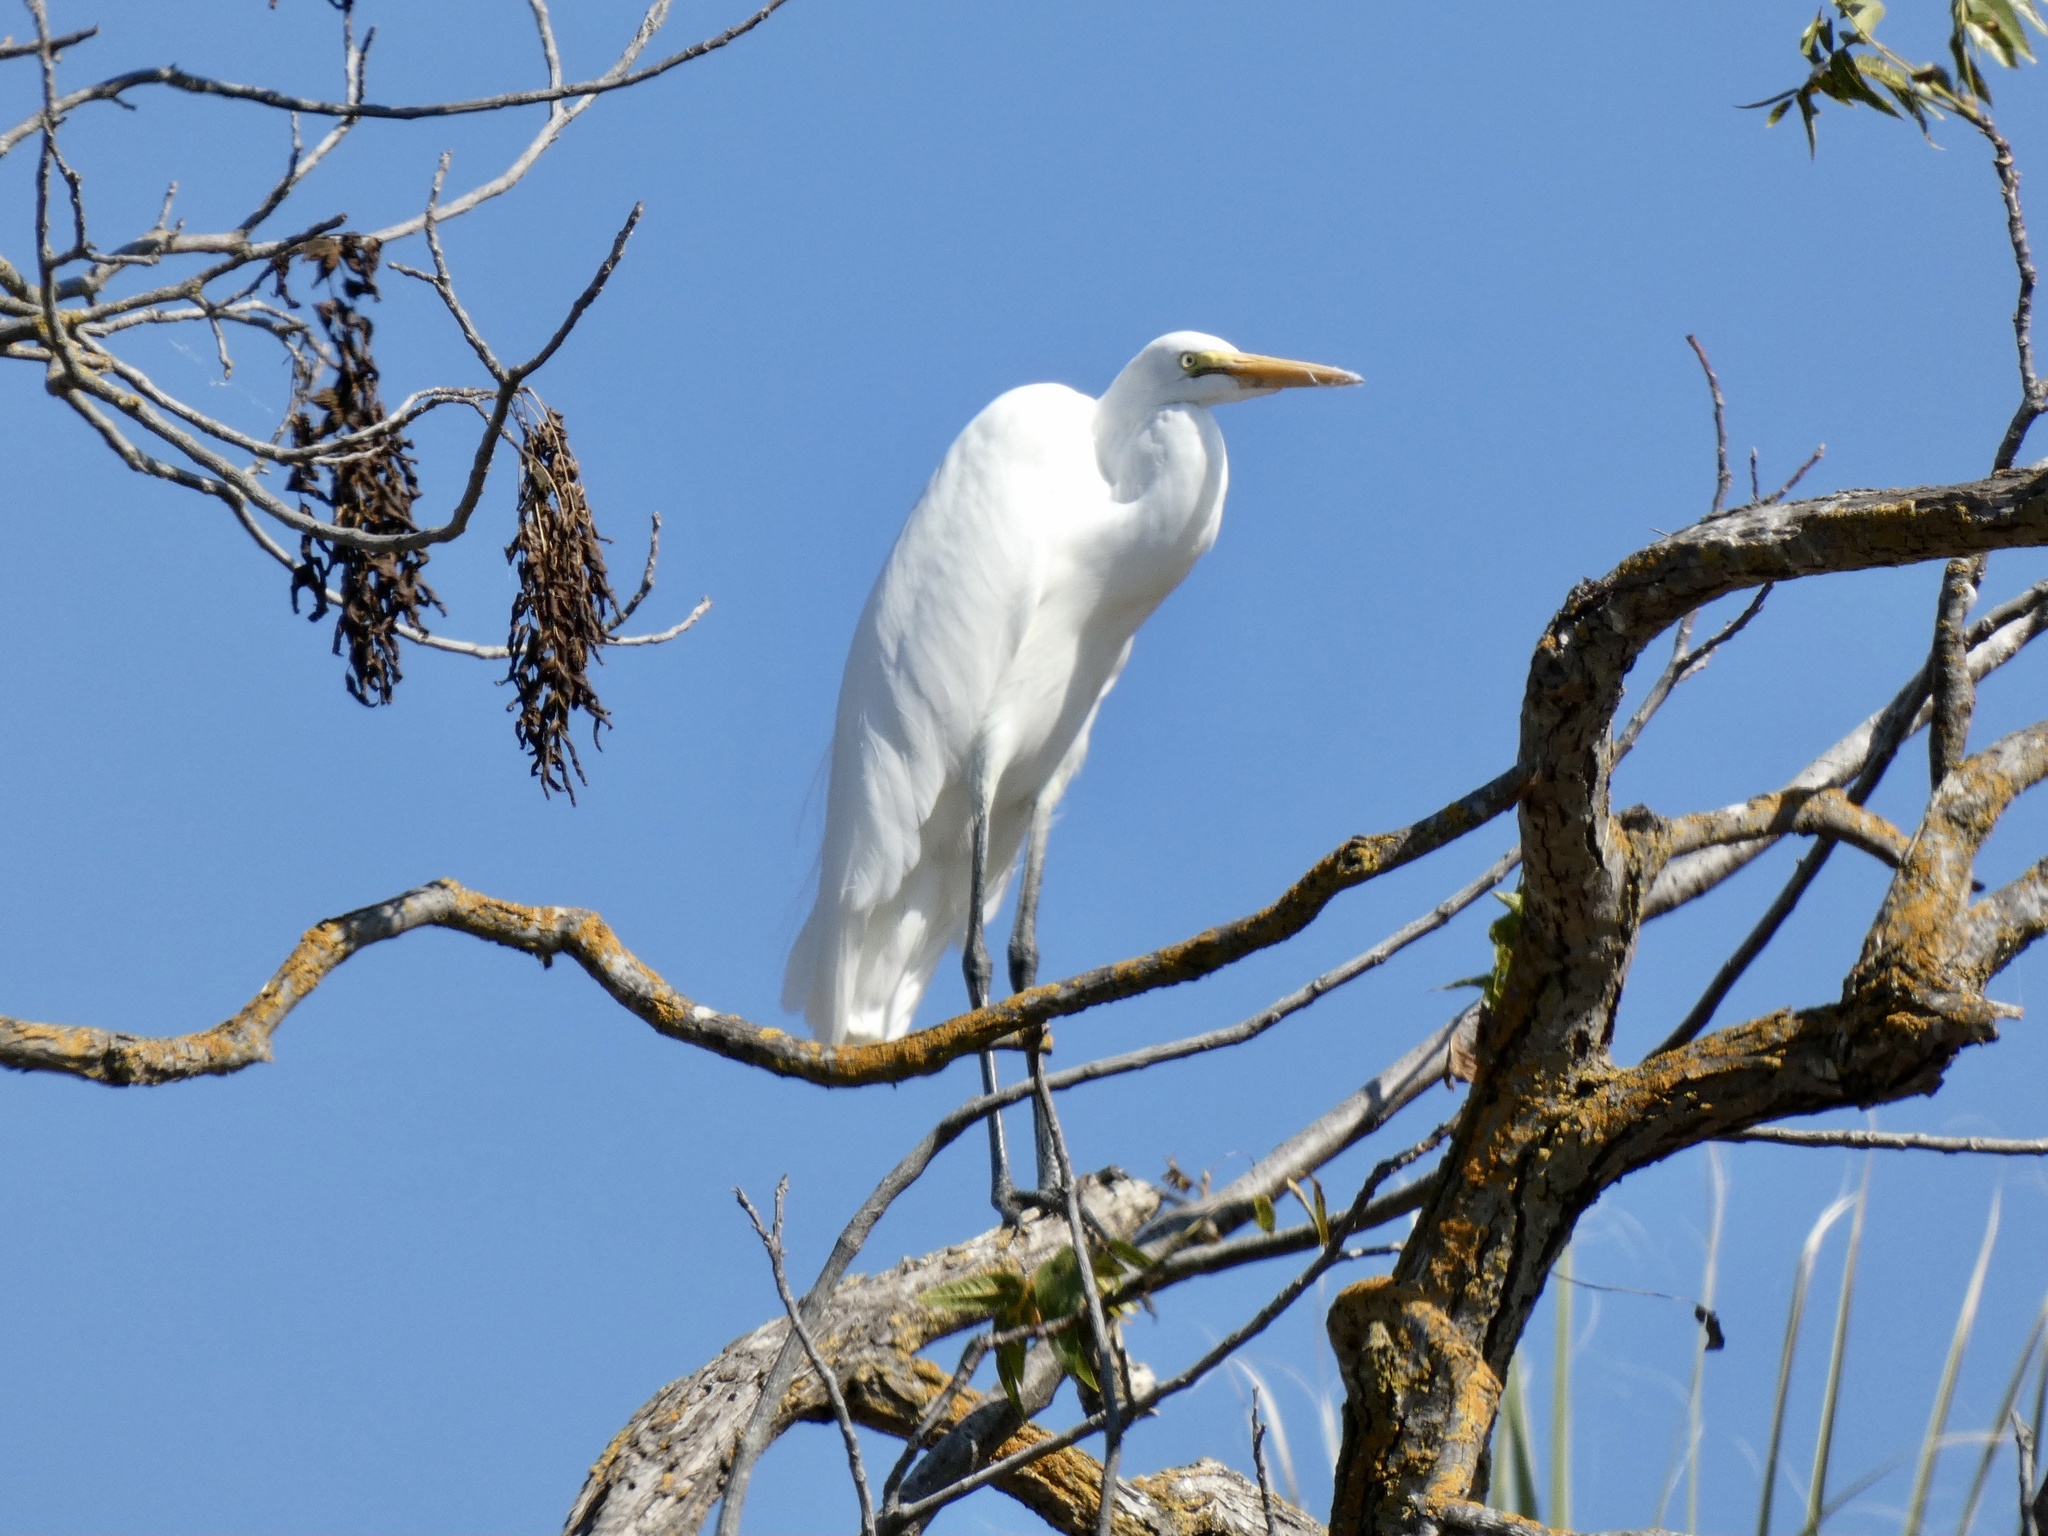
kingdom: Animalia
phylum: Chordata
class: Aves
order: Pelecaniformes
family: Ardeidae
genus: Ardea
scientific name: Ardea alba
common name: Great egret
